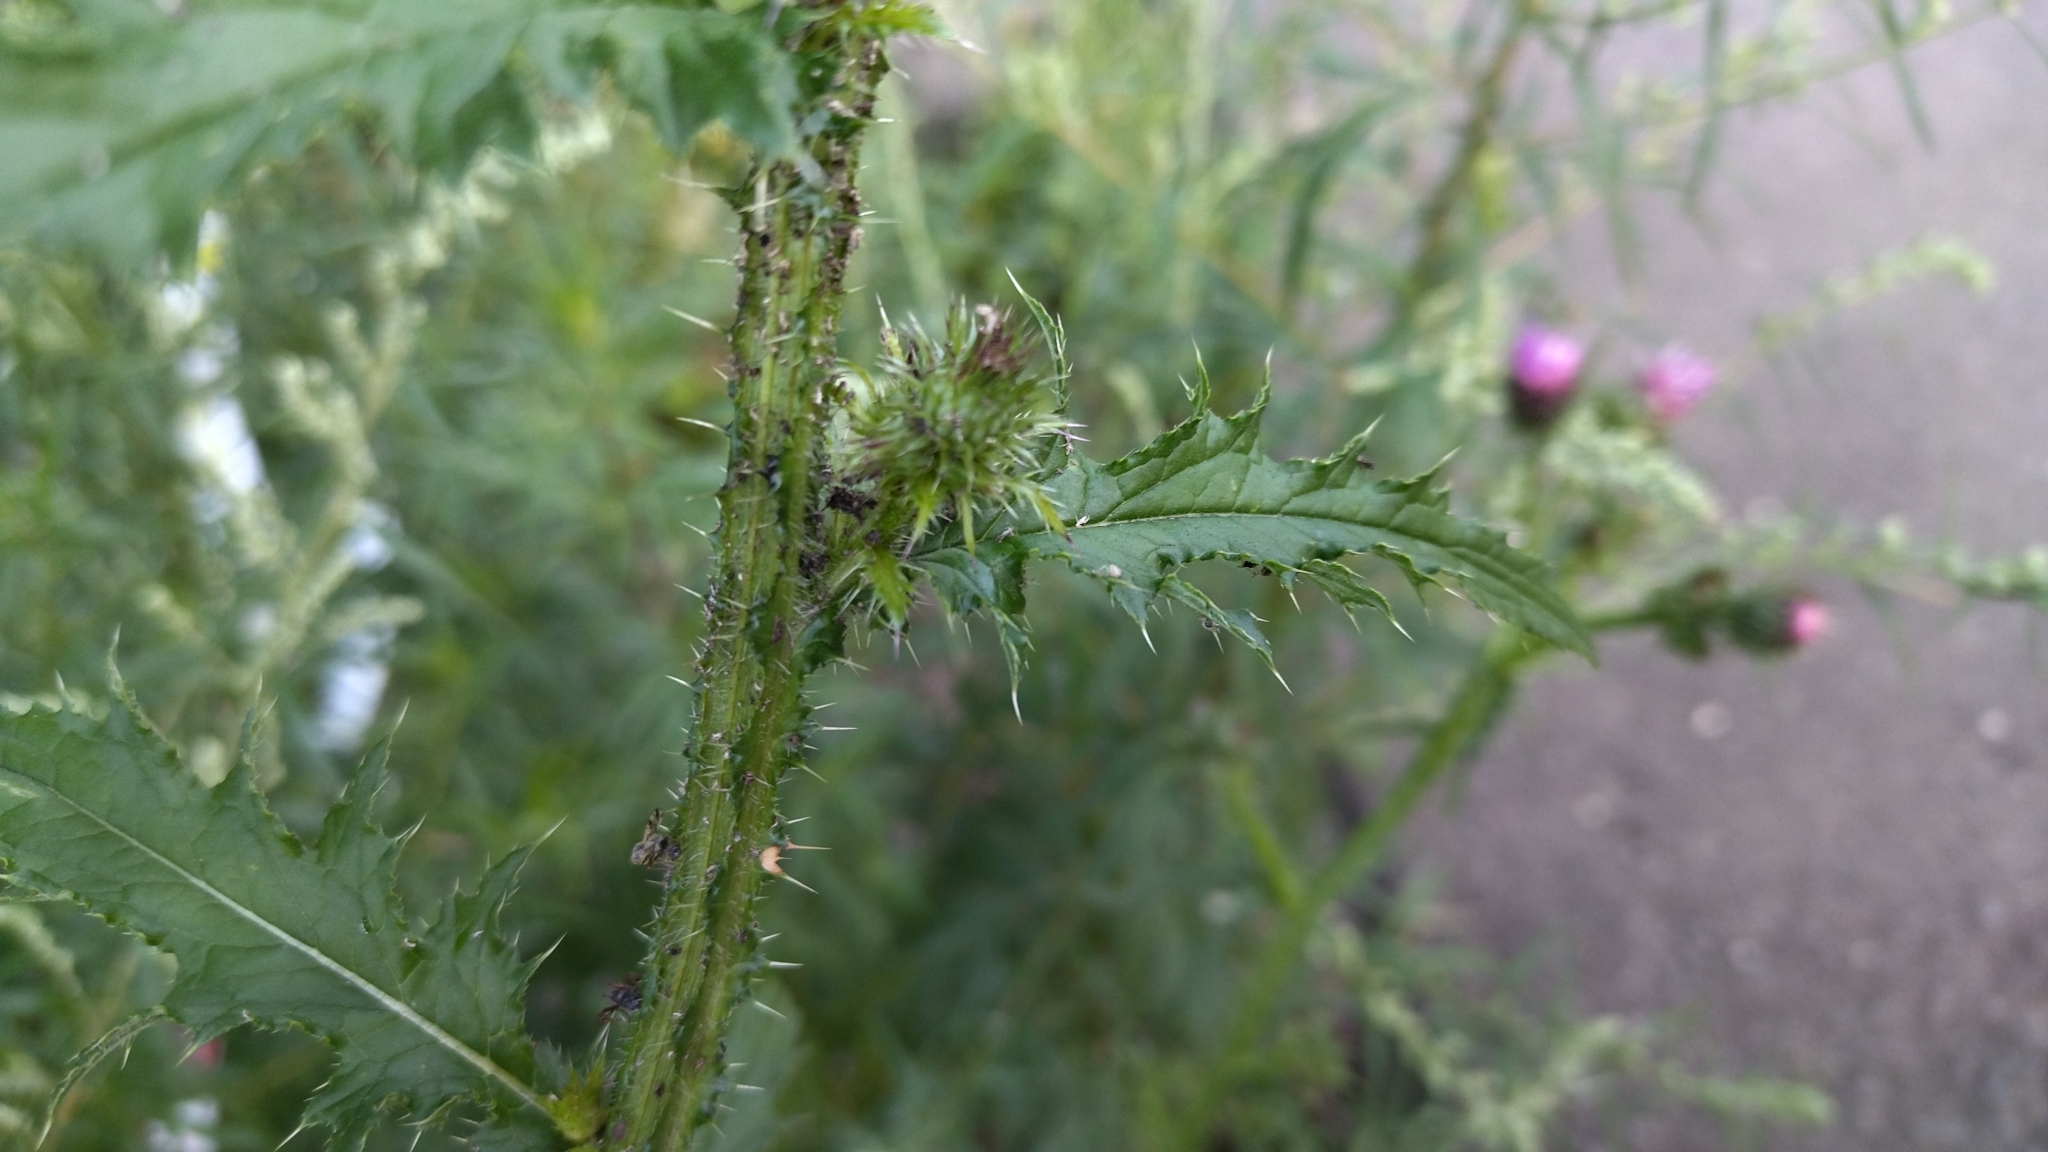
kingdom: Plantae
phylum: Tracheophyta
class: Magnoliopsida
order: Asterales
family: Asteraceae
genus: Carduus
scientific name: Carduus crispus
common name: Welted thistle
